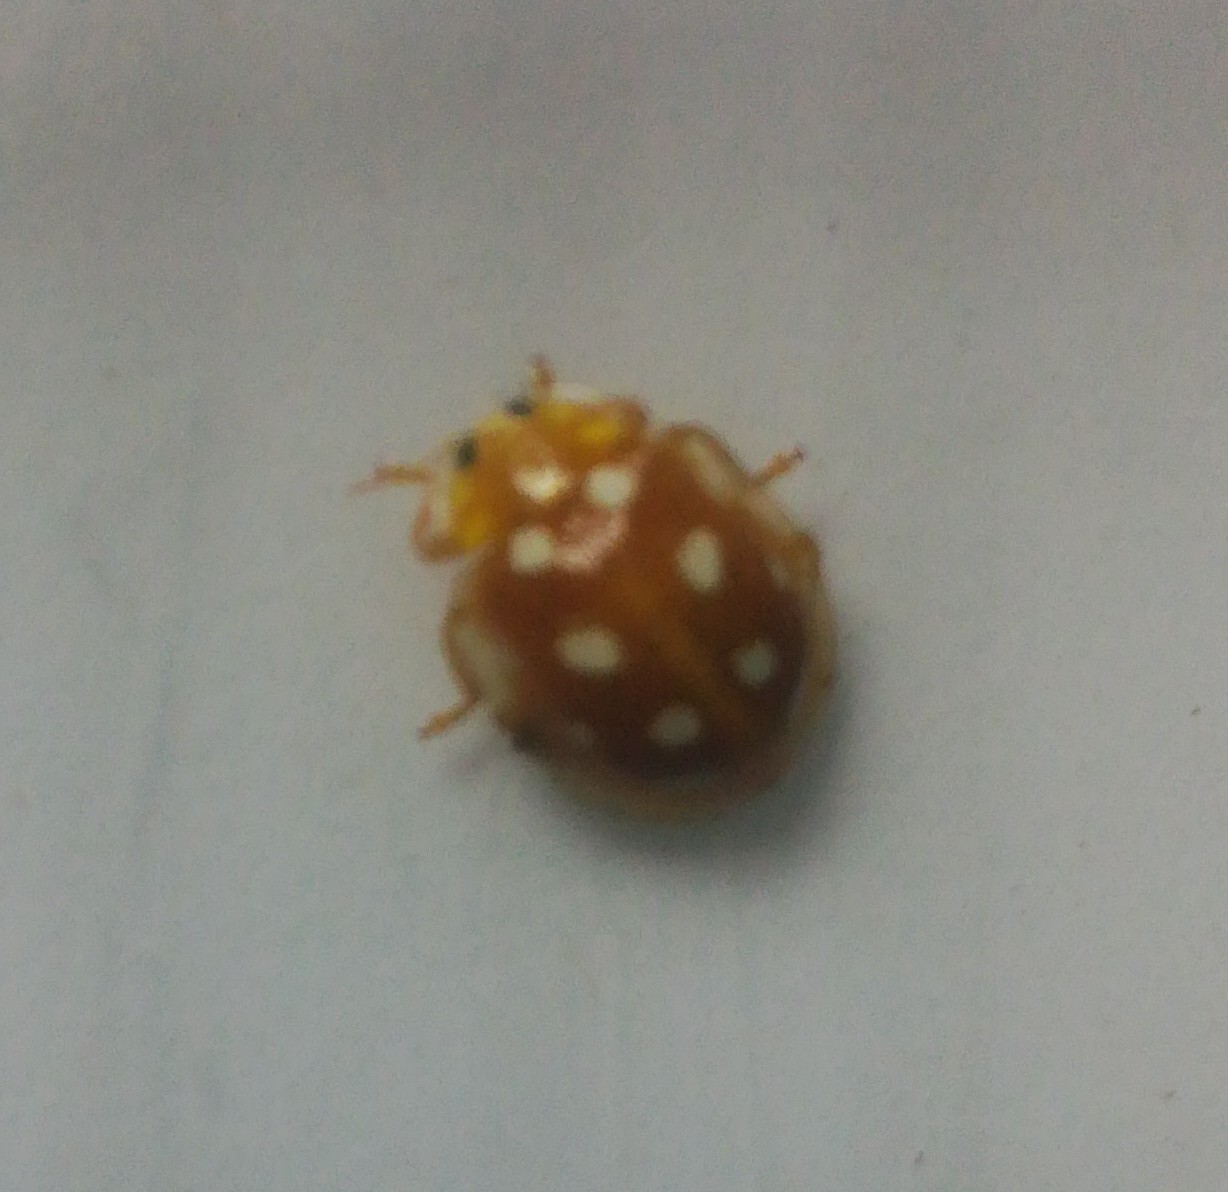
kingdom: Animalia
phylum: Arthropoda
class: Insecta
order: Coleoptera
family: Coccinellidae
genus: Halyzia
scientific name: Halyzia sedecimguttata
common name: Orange ladybird
